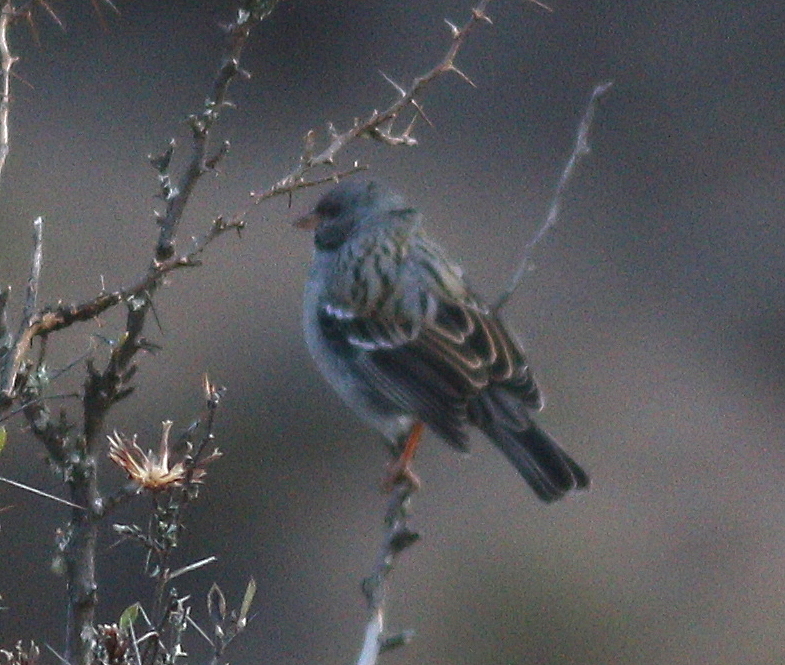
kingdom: Animalia
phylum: Chordata
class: Aves
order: Passeriformes
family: Thraupidae
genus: Rhopospina
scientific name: Rhopospina fruticeti
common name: Mourning sierra finch
